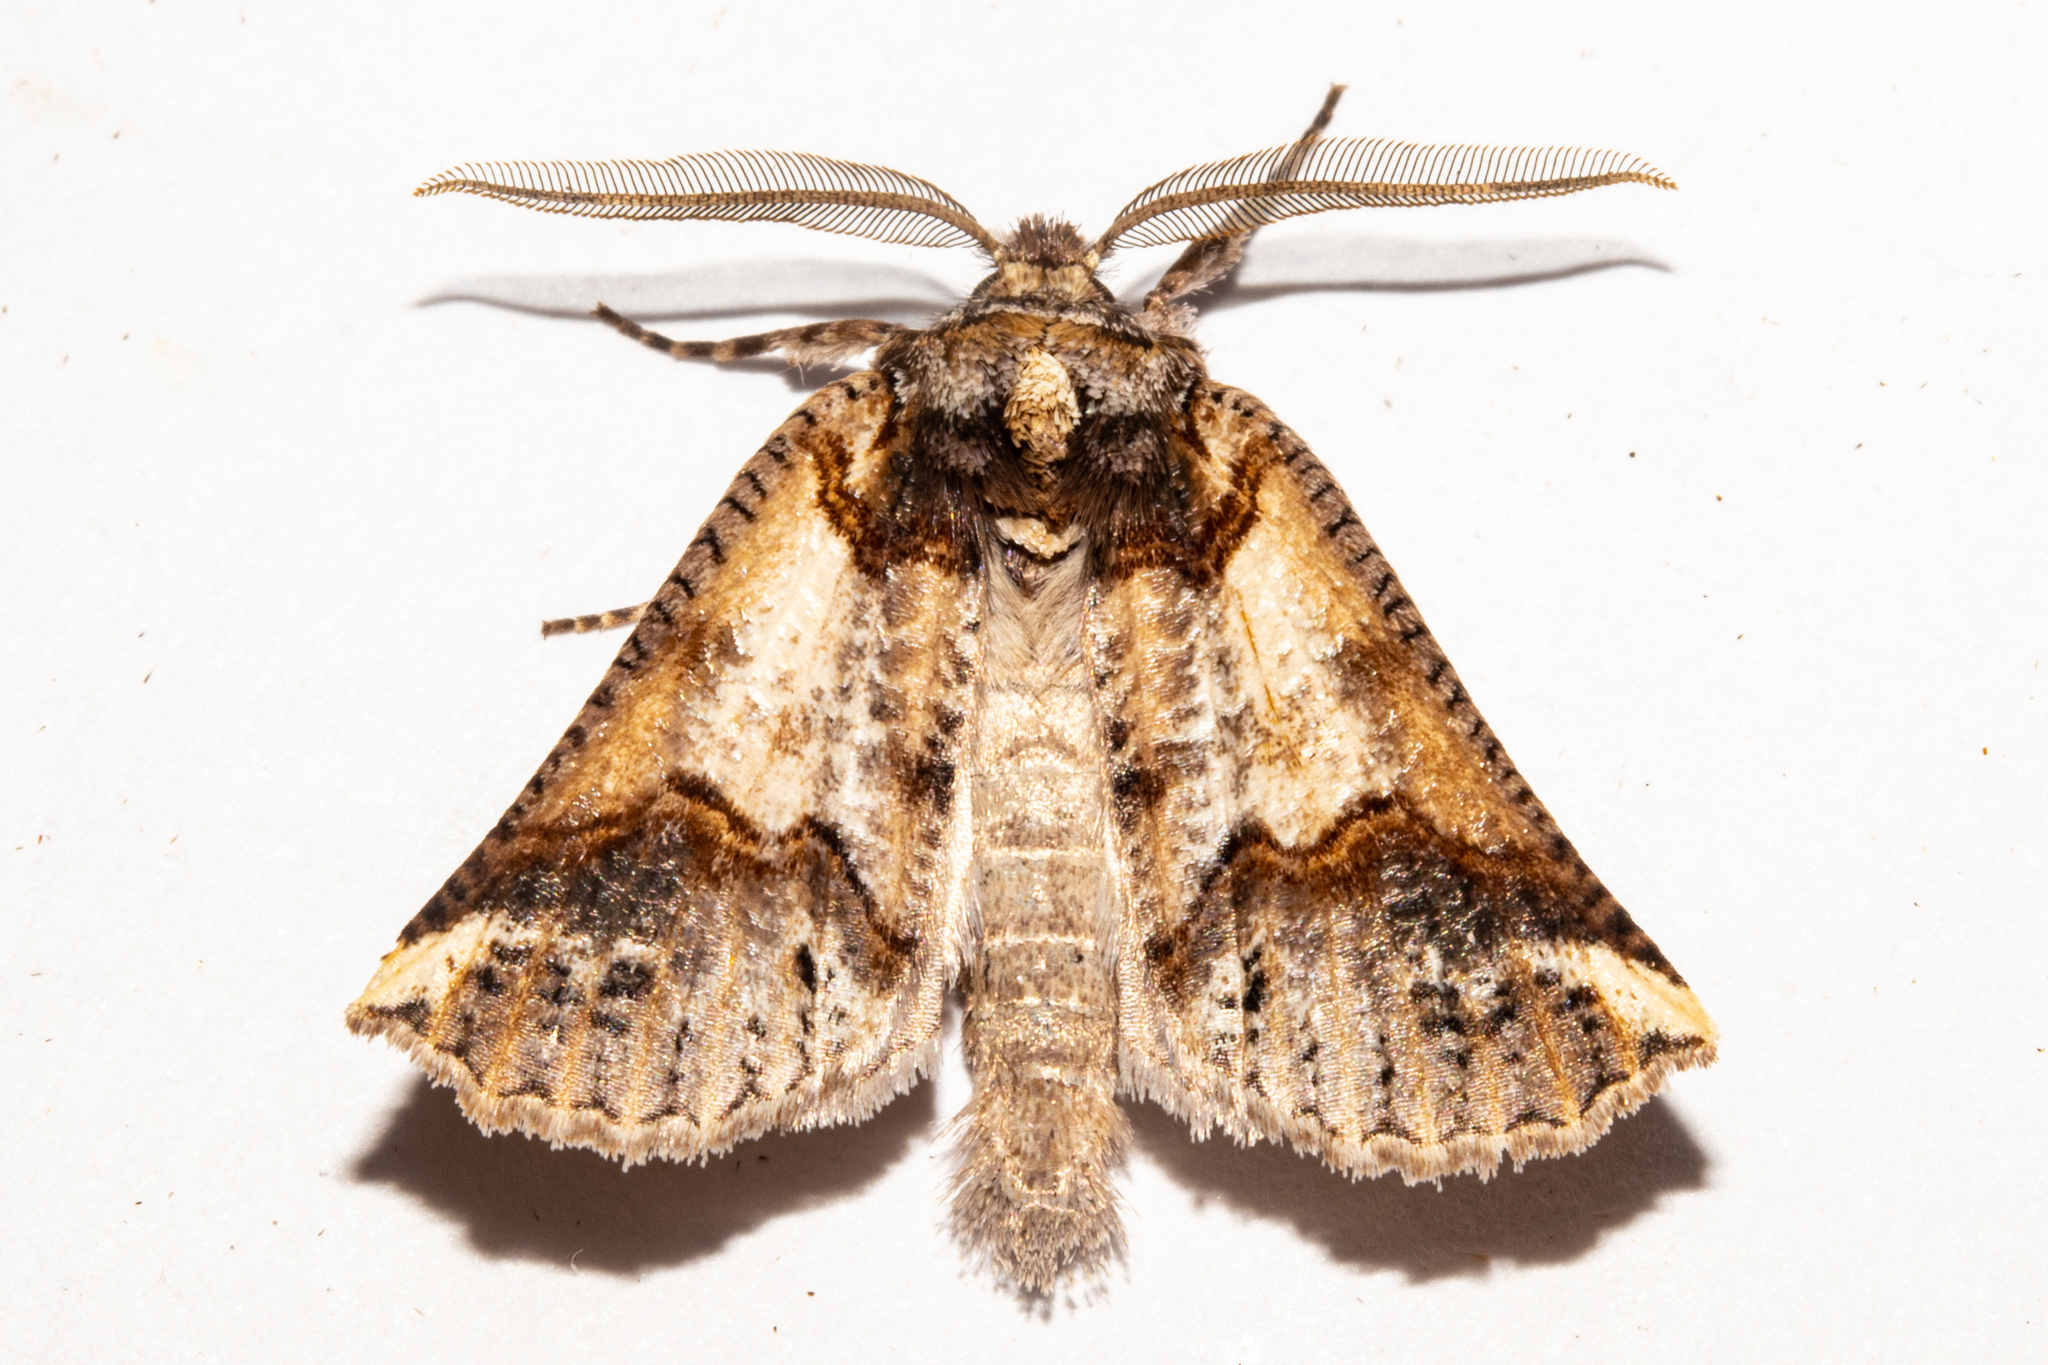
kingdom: Animalia
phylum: Arthropoda
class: Insecta
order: Lepidoptera
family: Geometridae
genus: Declana
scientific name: Declana
